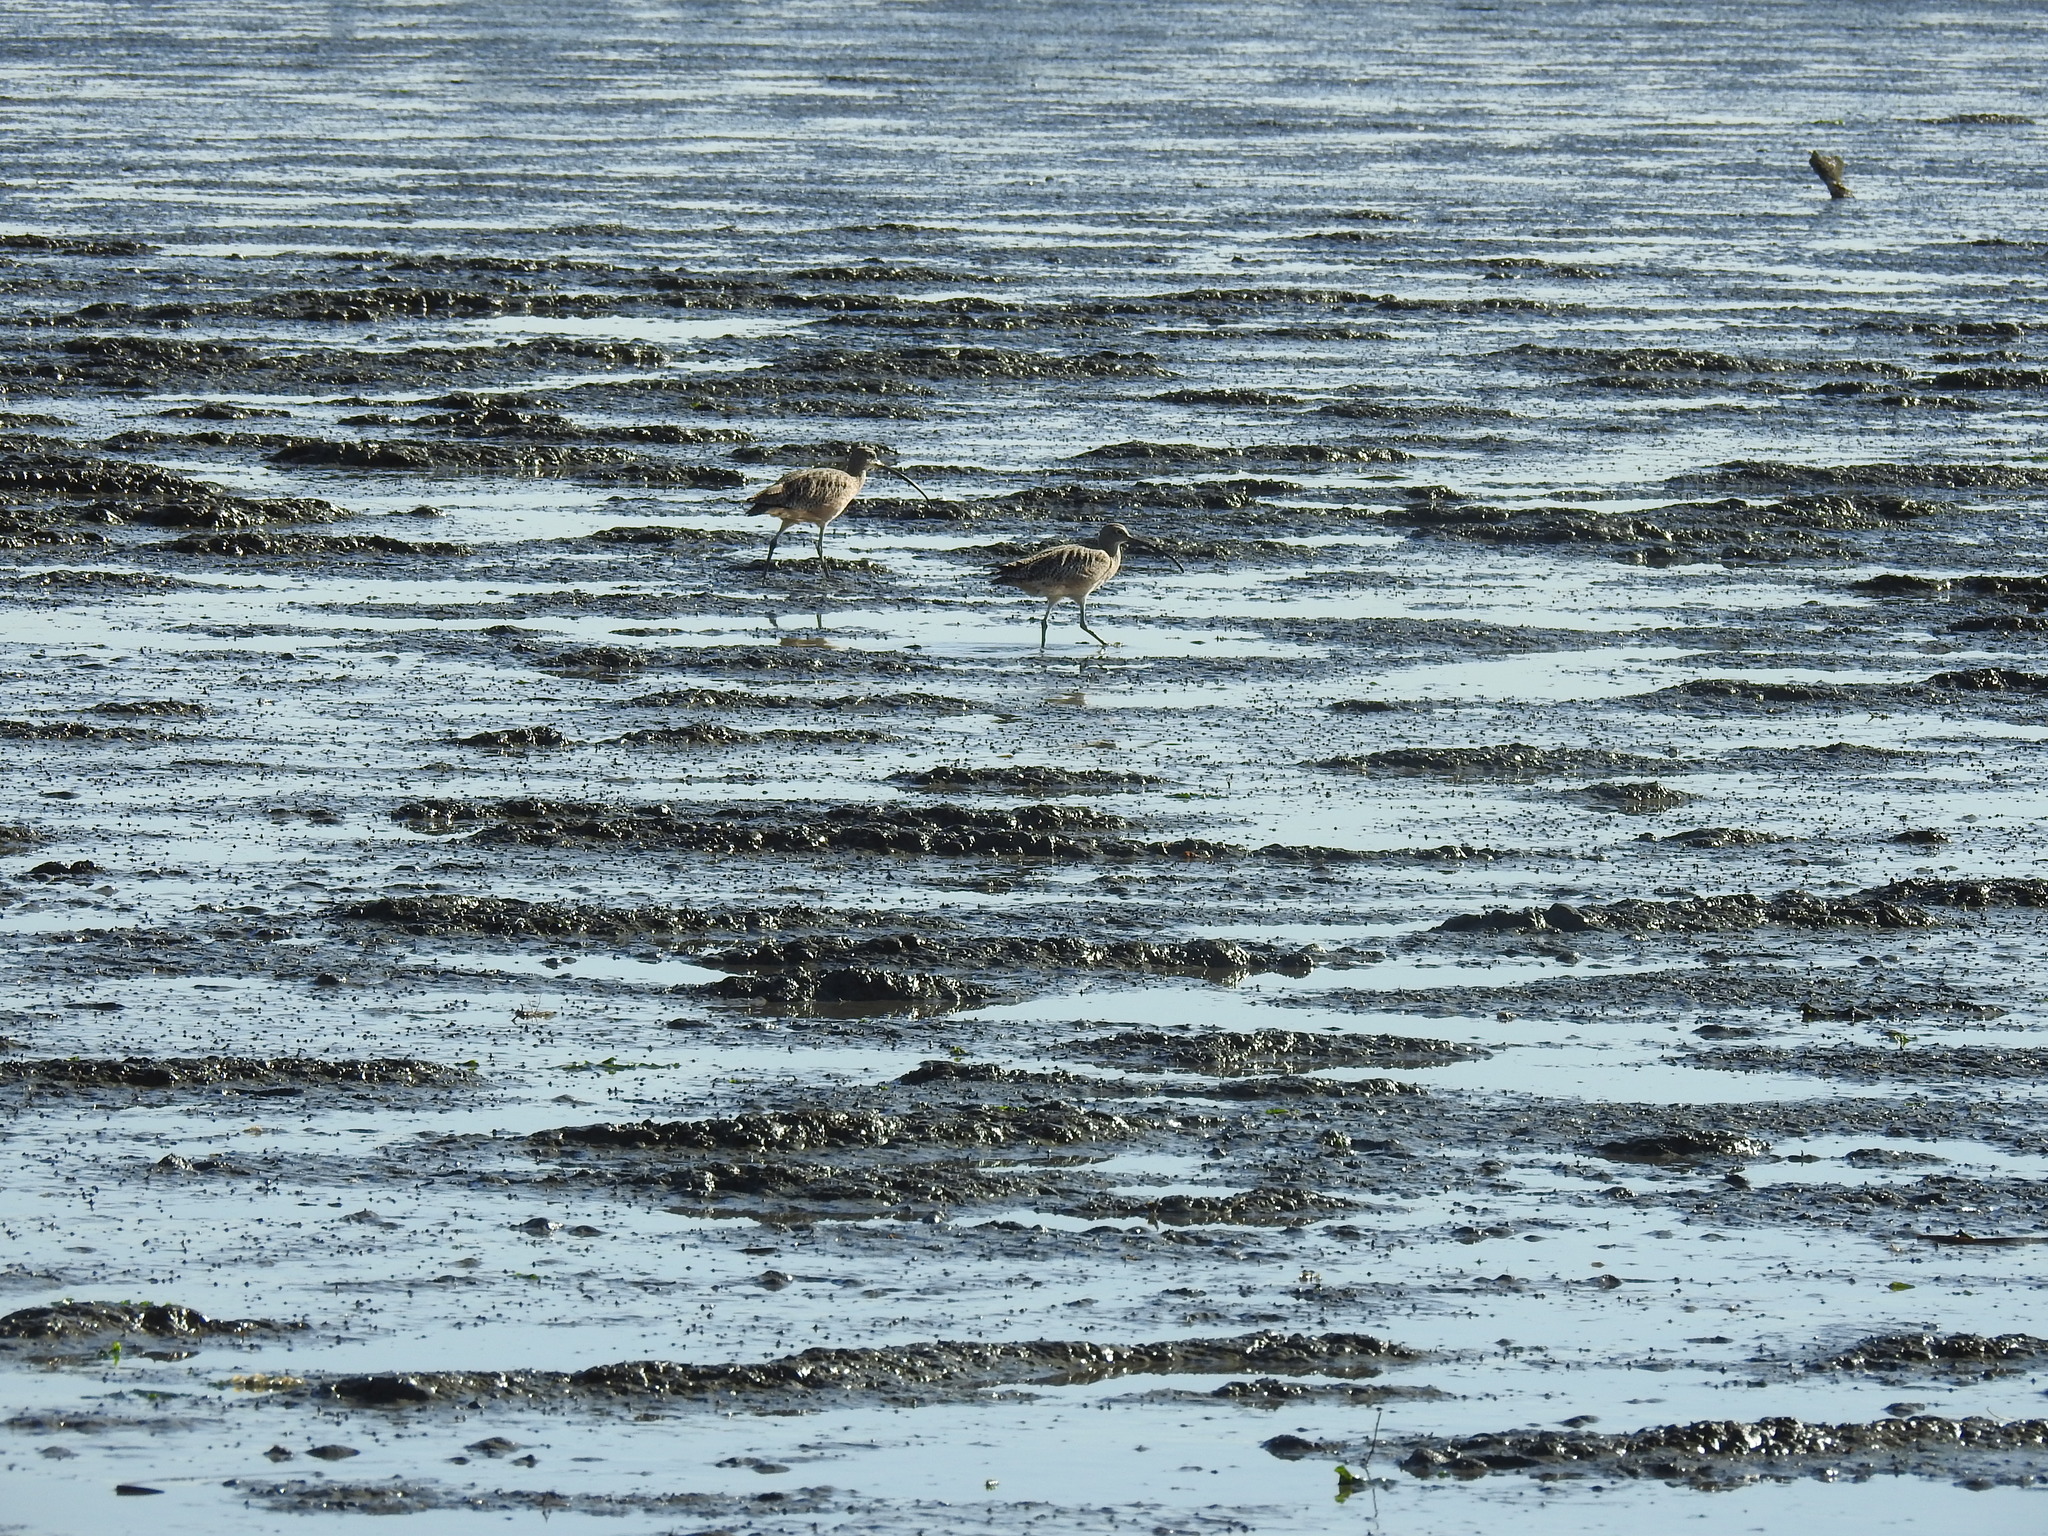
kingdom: Animalia
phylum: Chordata
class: Aves
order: Charadriiformes
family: Scolopacidae
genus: Numenius
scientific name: Numenius americanus
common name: Long-billed curlew
